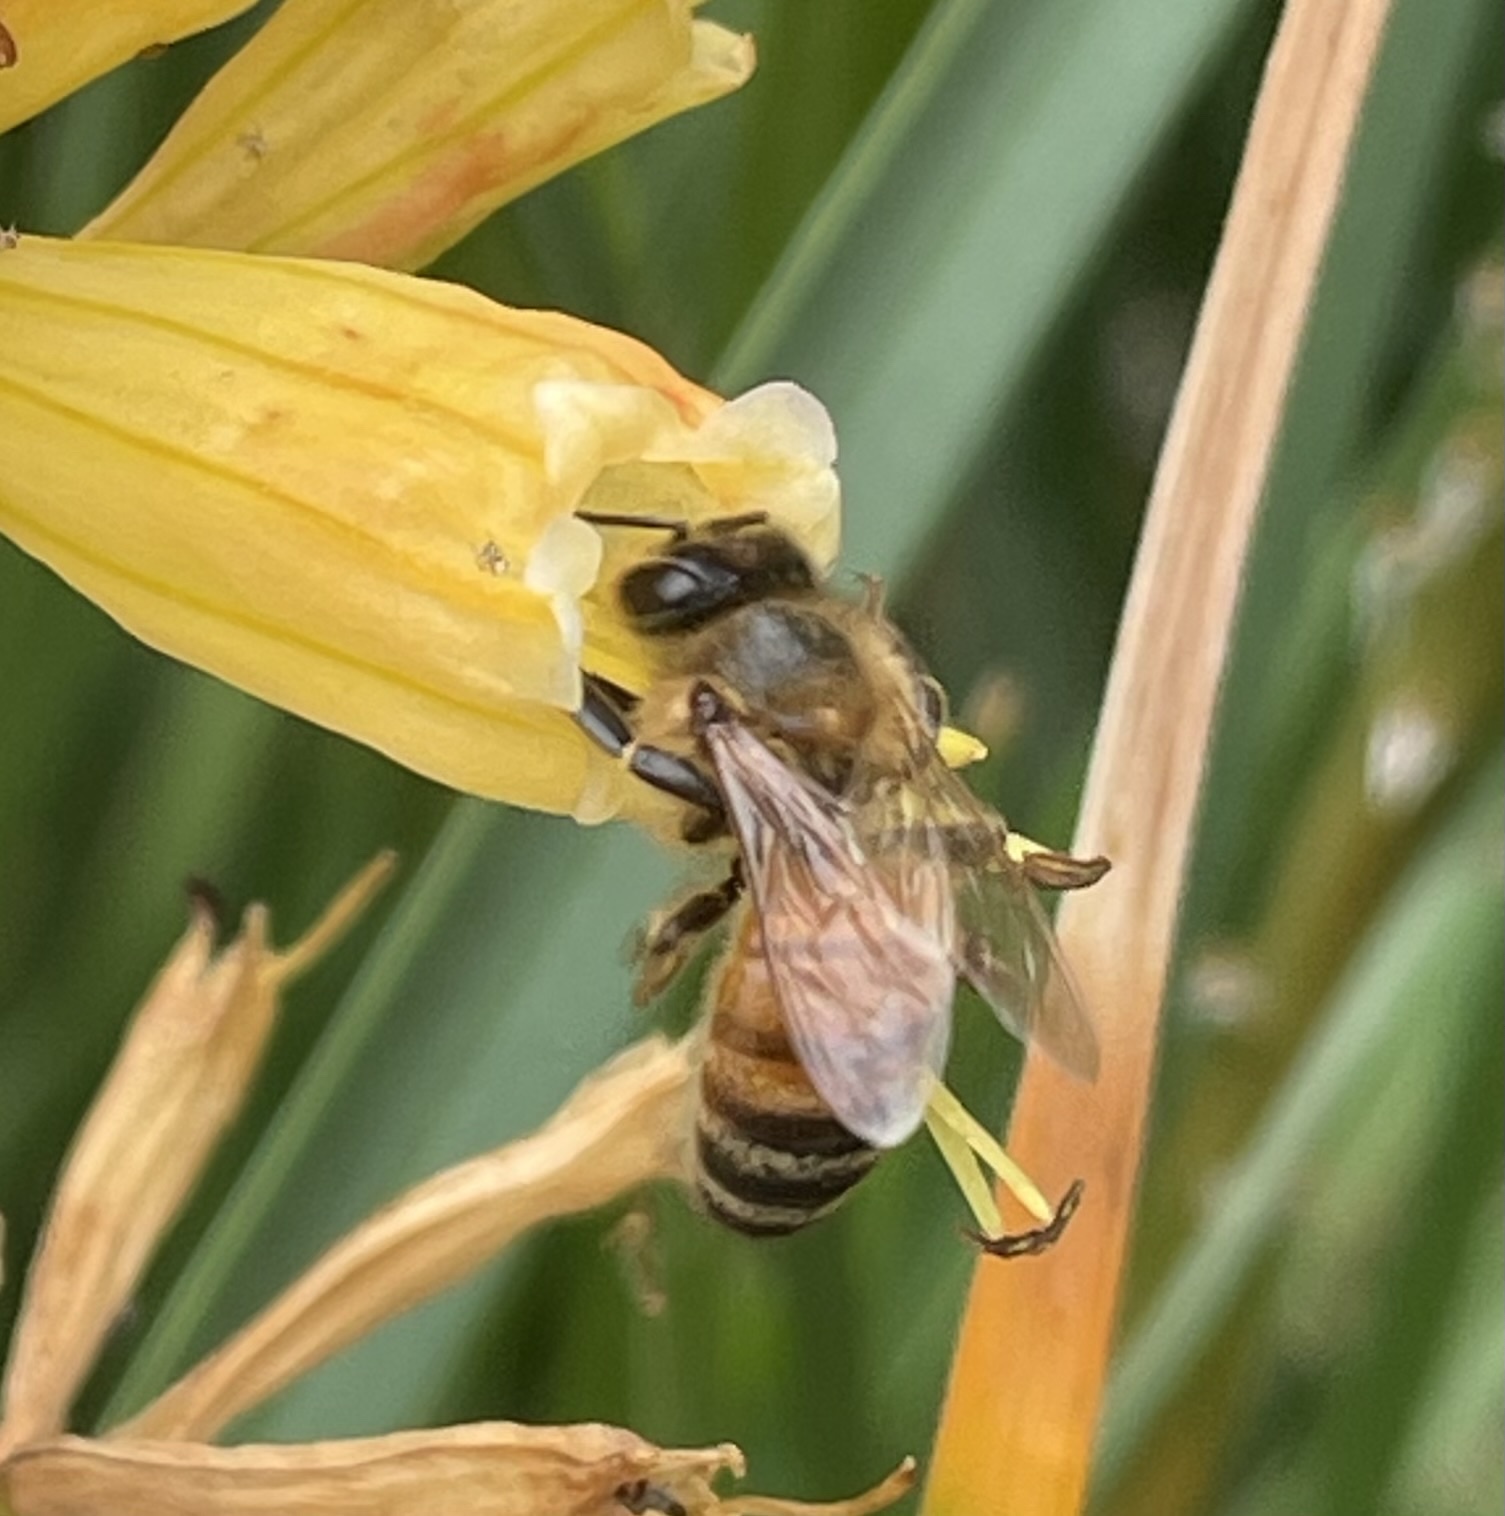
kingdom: Animalia
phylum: Arthropoda
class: Insecta
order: Hymenoptera
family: Apidae
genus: Apis
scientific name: Apis mellifera
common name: Honey bee
